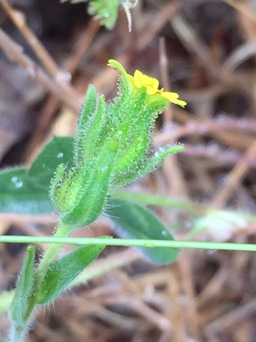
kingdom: Plantae
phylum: Tracheophyta
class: Magnoliopsida
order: Asterales
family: Asteraceae
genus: Madia
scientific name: Madia gracilis
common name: Grassy tarweed
